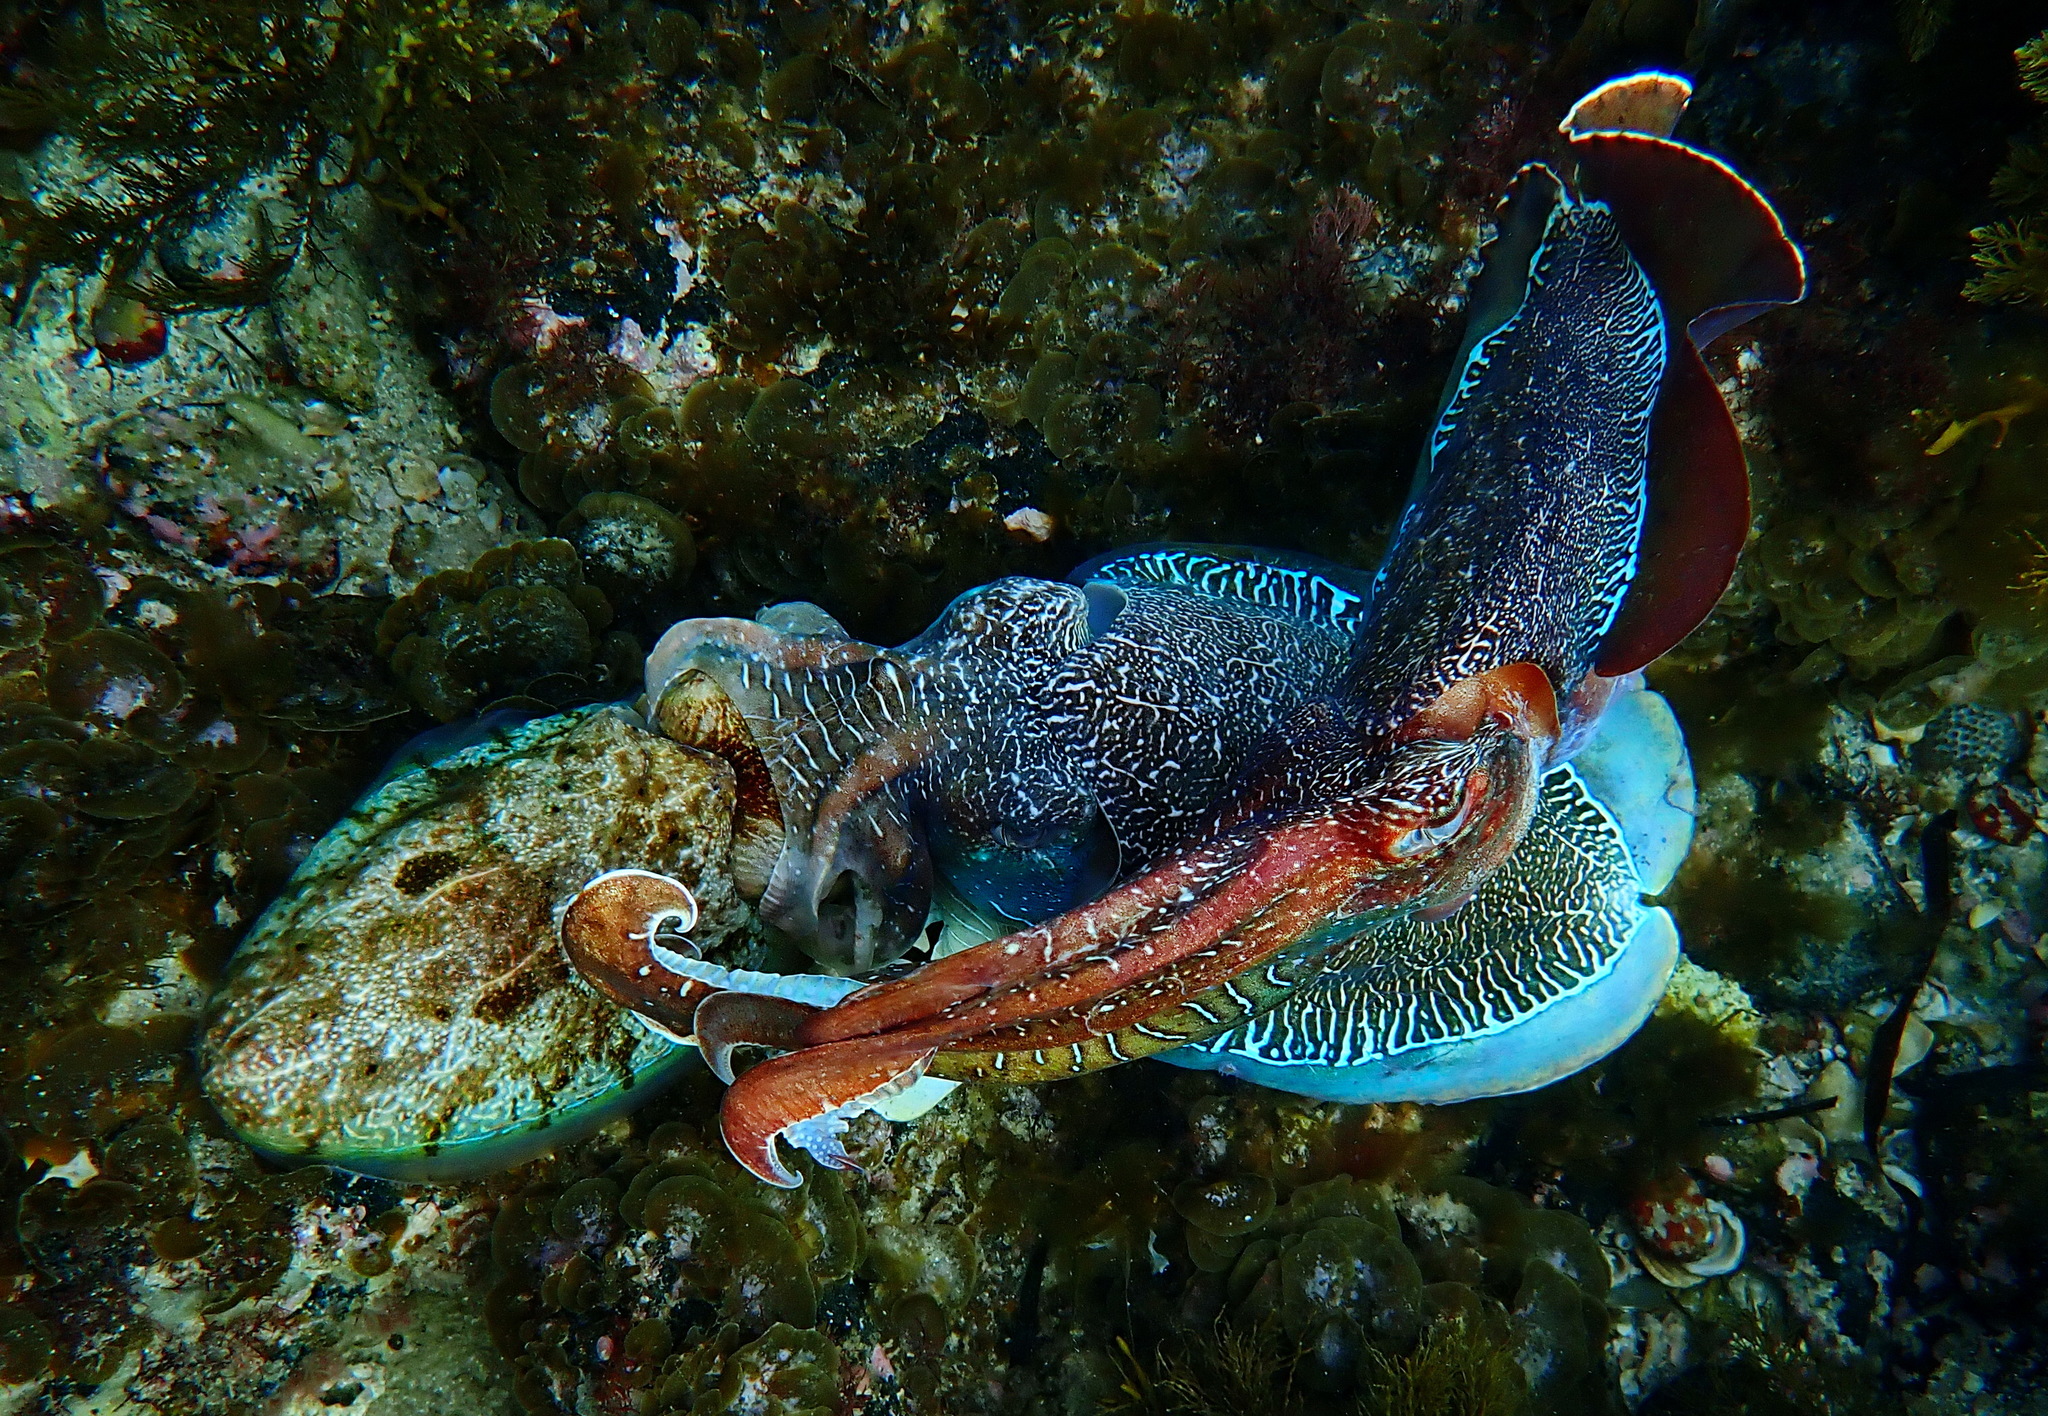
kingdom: Animalia
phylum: Mollusca
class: Cephalopoda
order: Sepiida
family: Sepiidae
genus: Ascarosepion
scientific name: Ascarosepion apama
